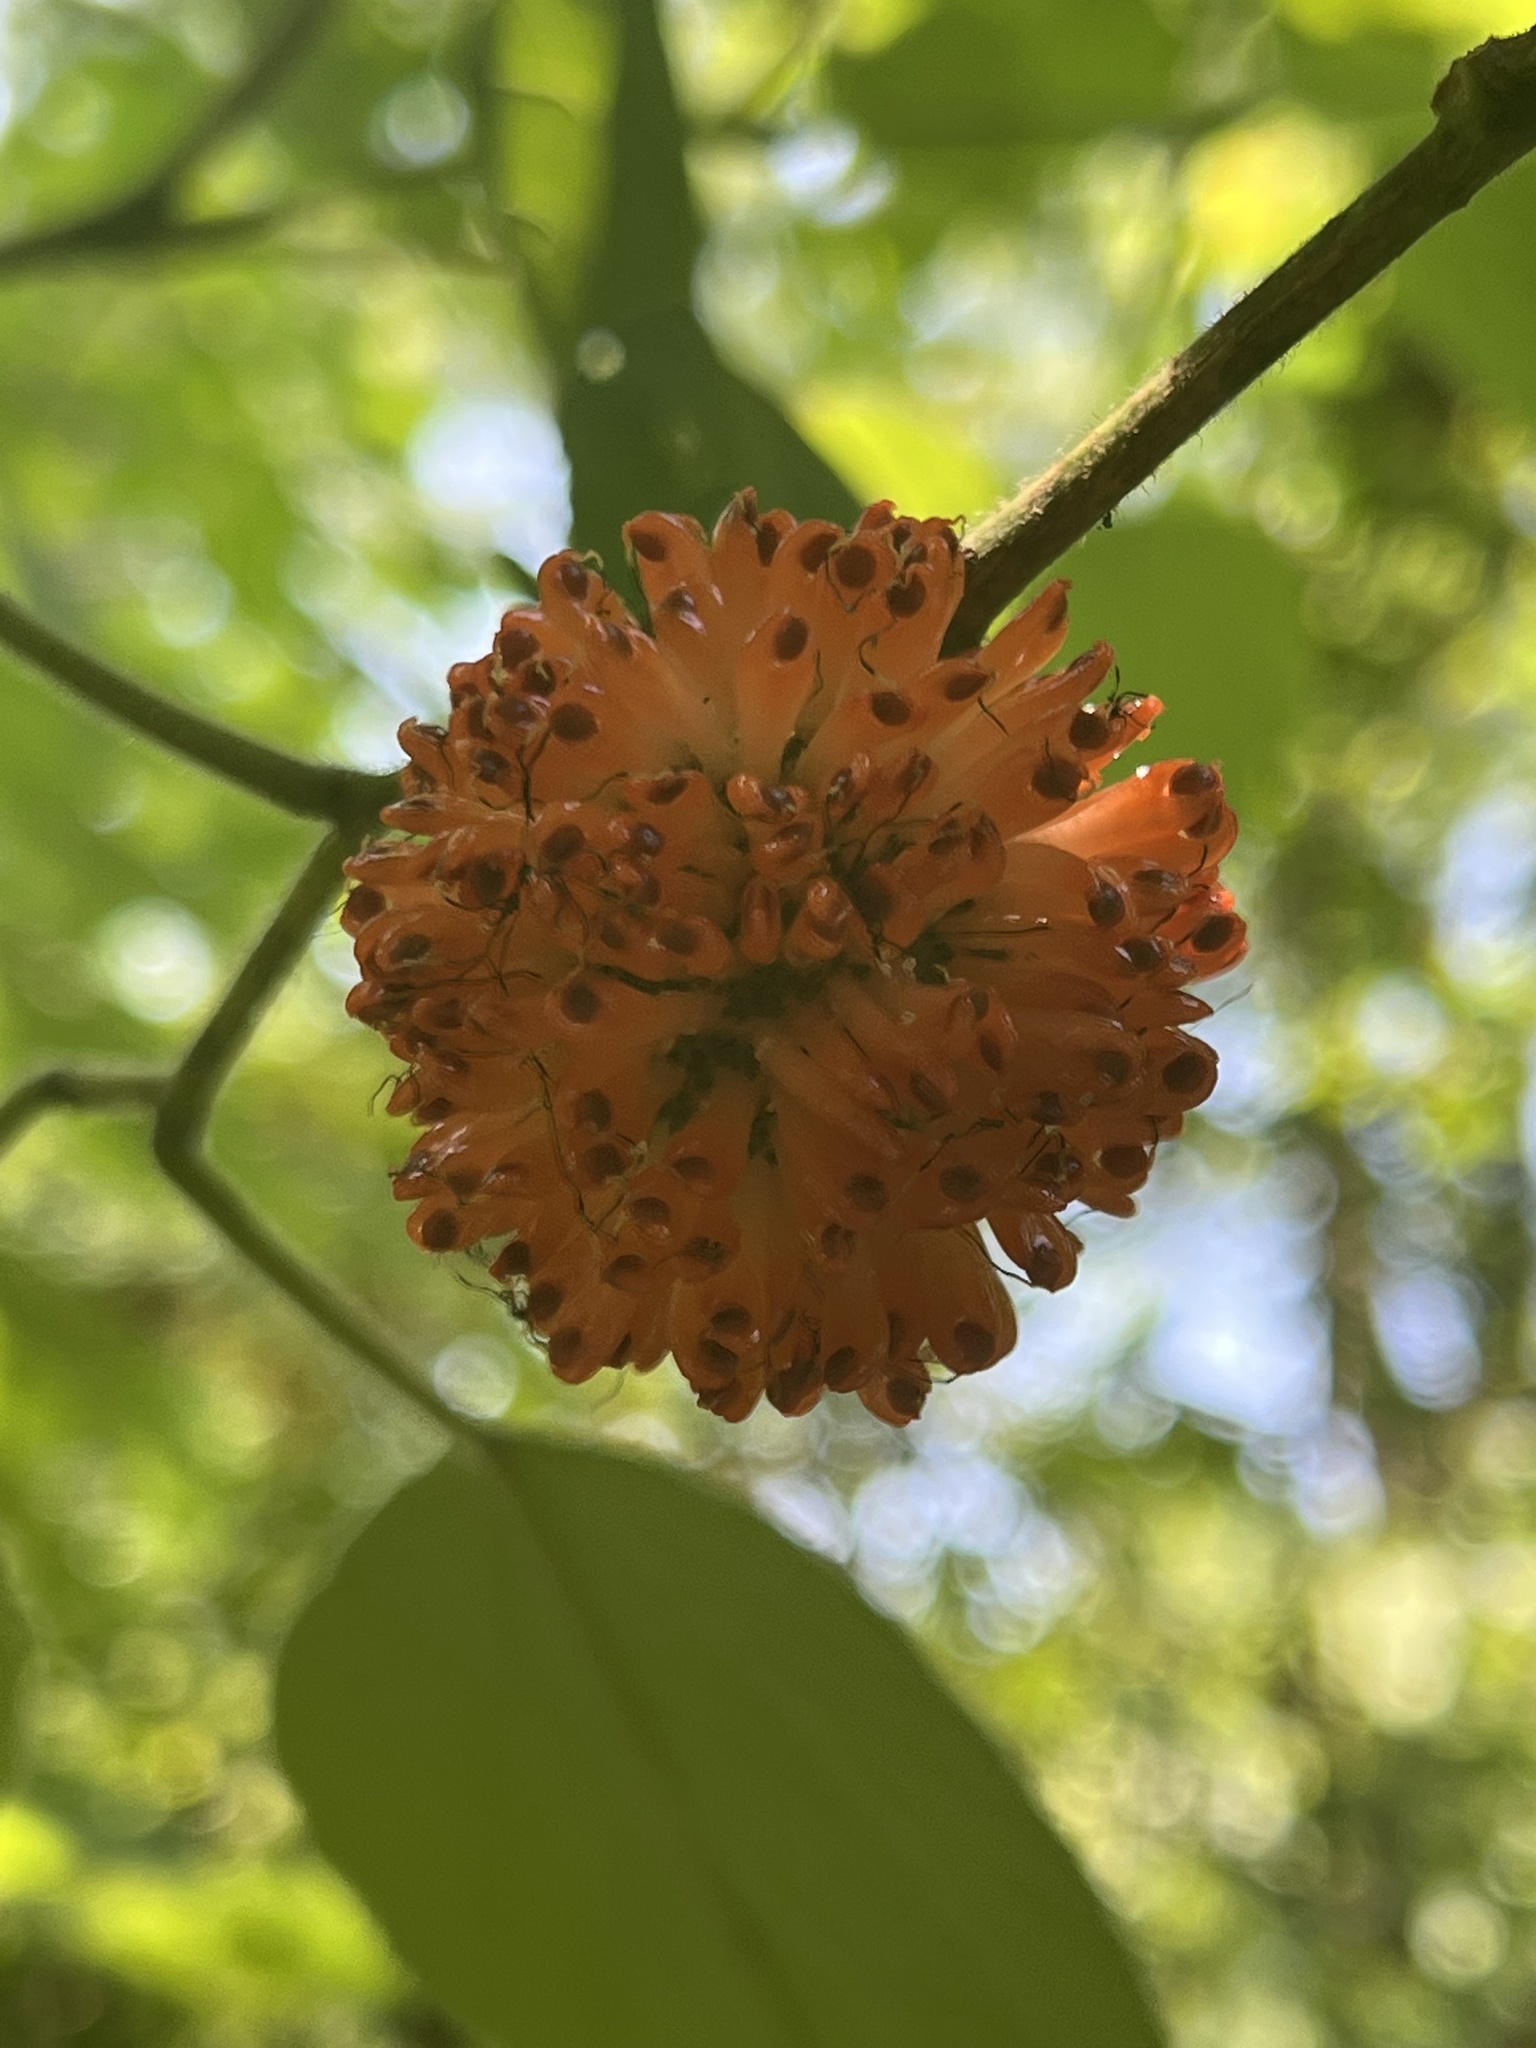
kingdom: Plantae
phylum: Tracheophyta
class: Magnoliopsida
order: Rosales
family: Moraceae
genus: Broussonetia
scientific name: Broussonetia papyrifera
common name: Paper mulberry
